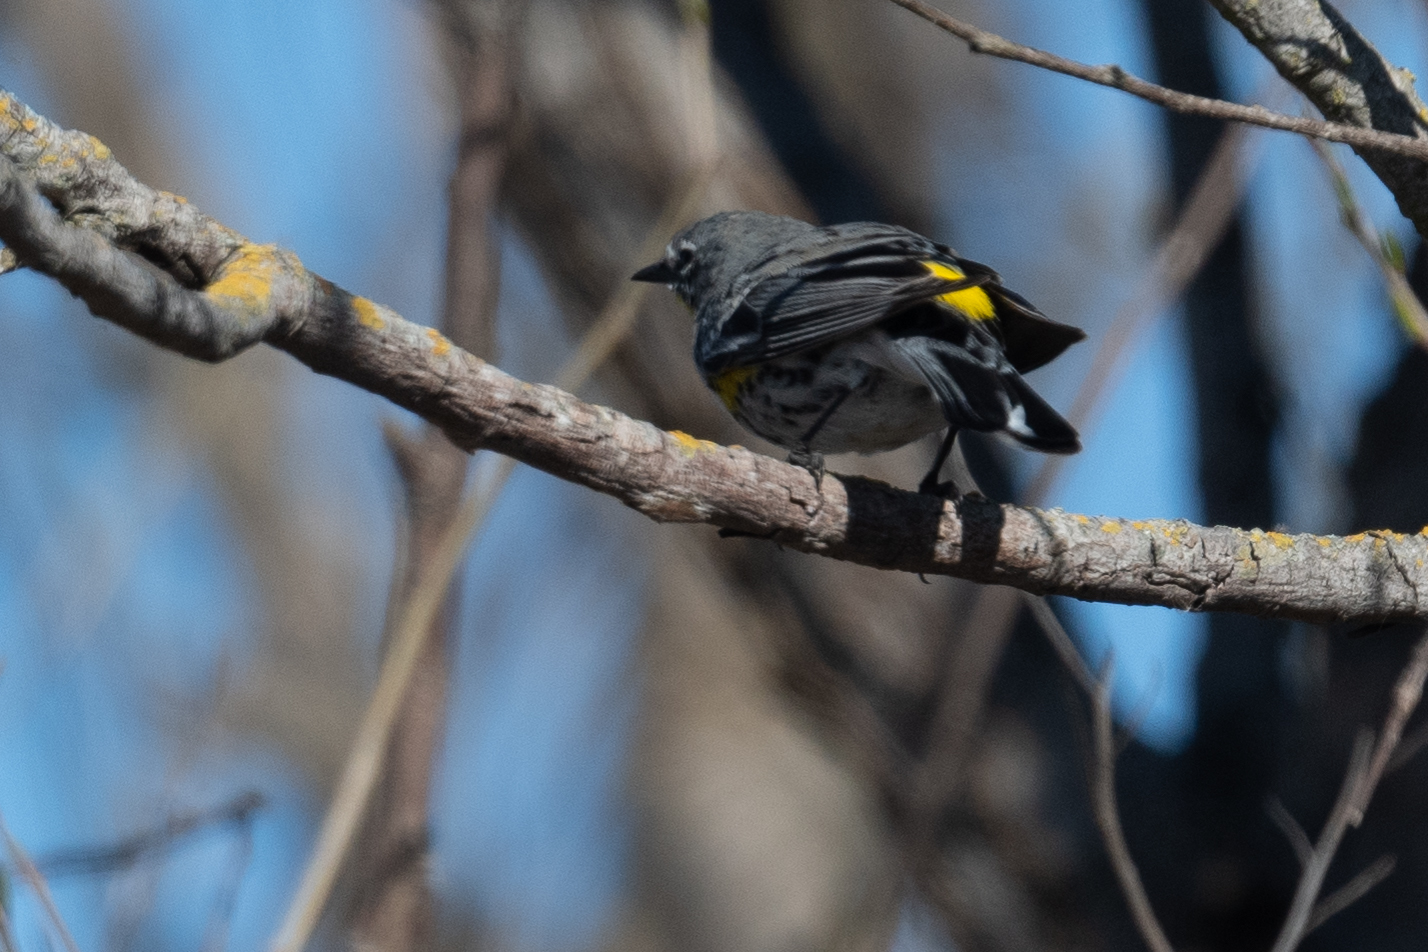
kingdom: Animalia
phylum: Chordata
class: Aves
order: Passeriformes
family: Parulidae
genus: Setophaga
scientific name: Setophaga coronata
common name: Myrtle warbler
